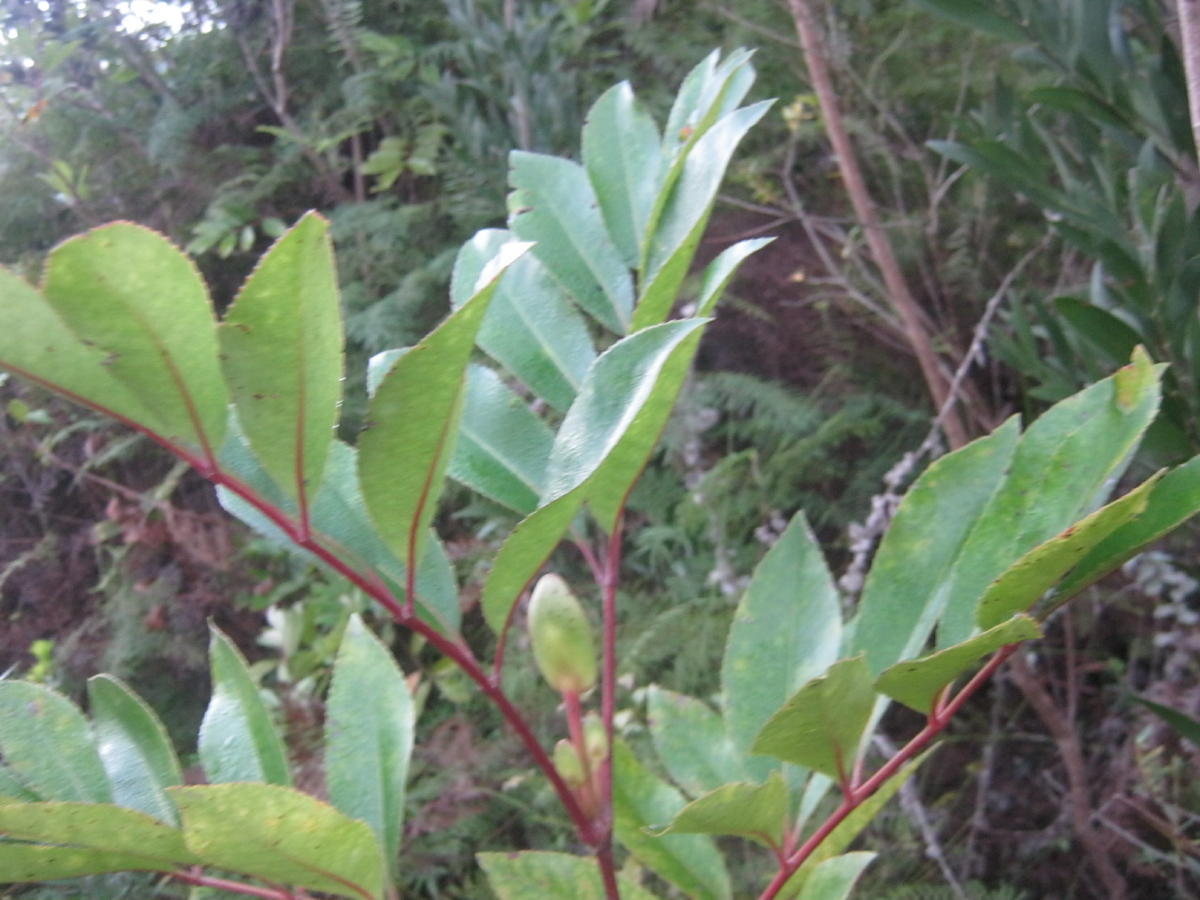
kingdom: Plantae
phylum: Tracheophyta
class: Magnoliopsida
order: Oxalidales
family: Cunoniaceae
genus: Cunonia
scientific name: Cunonia capensis
